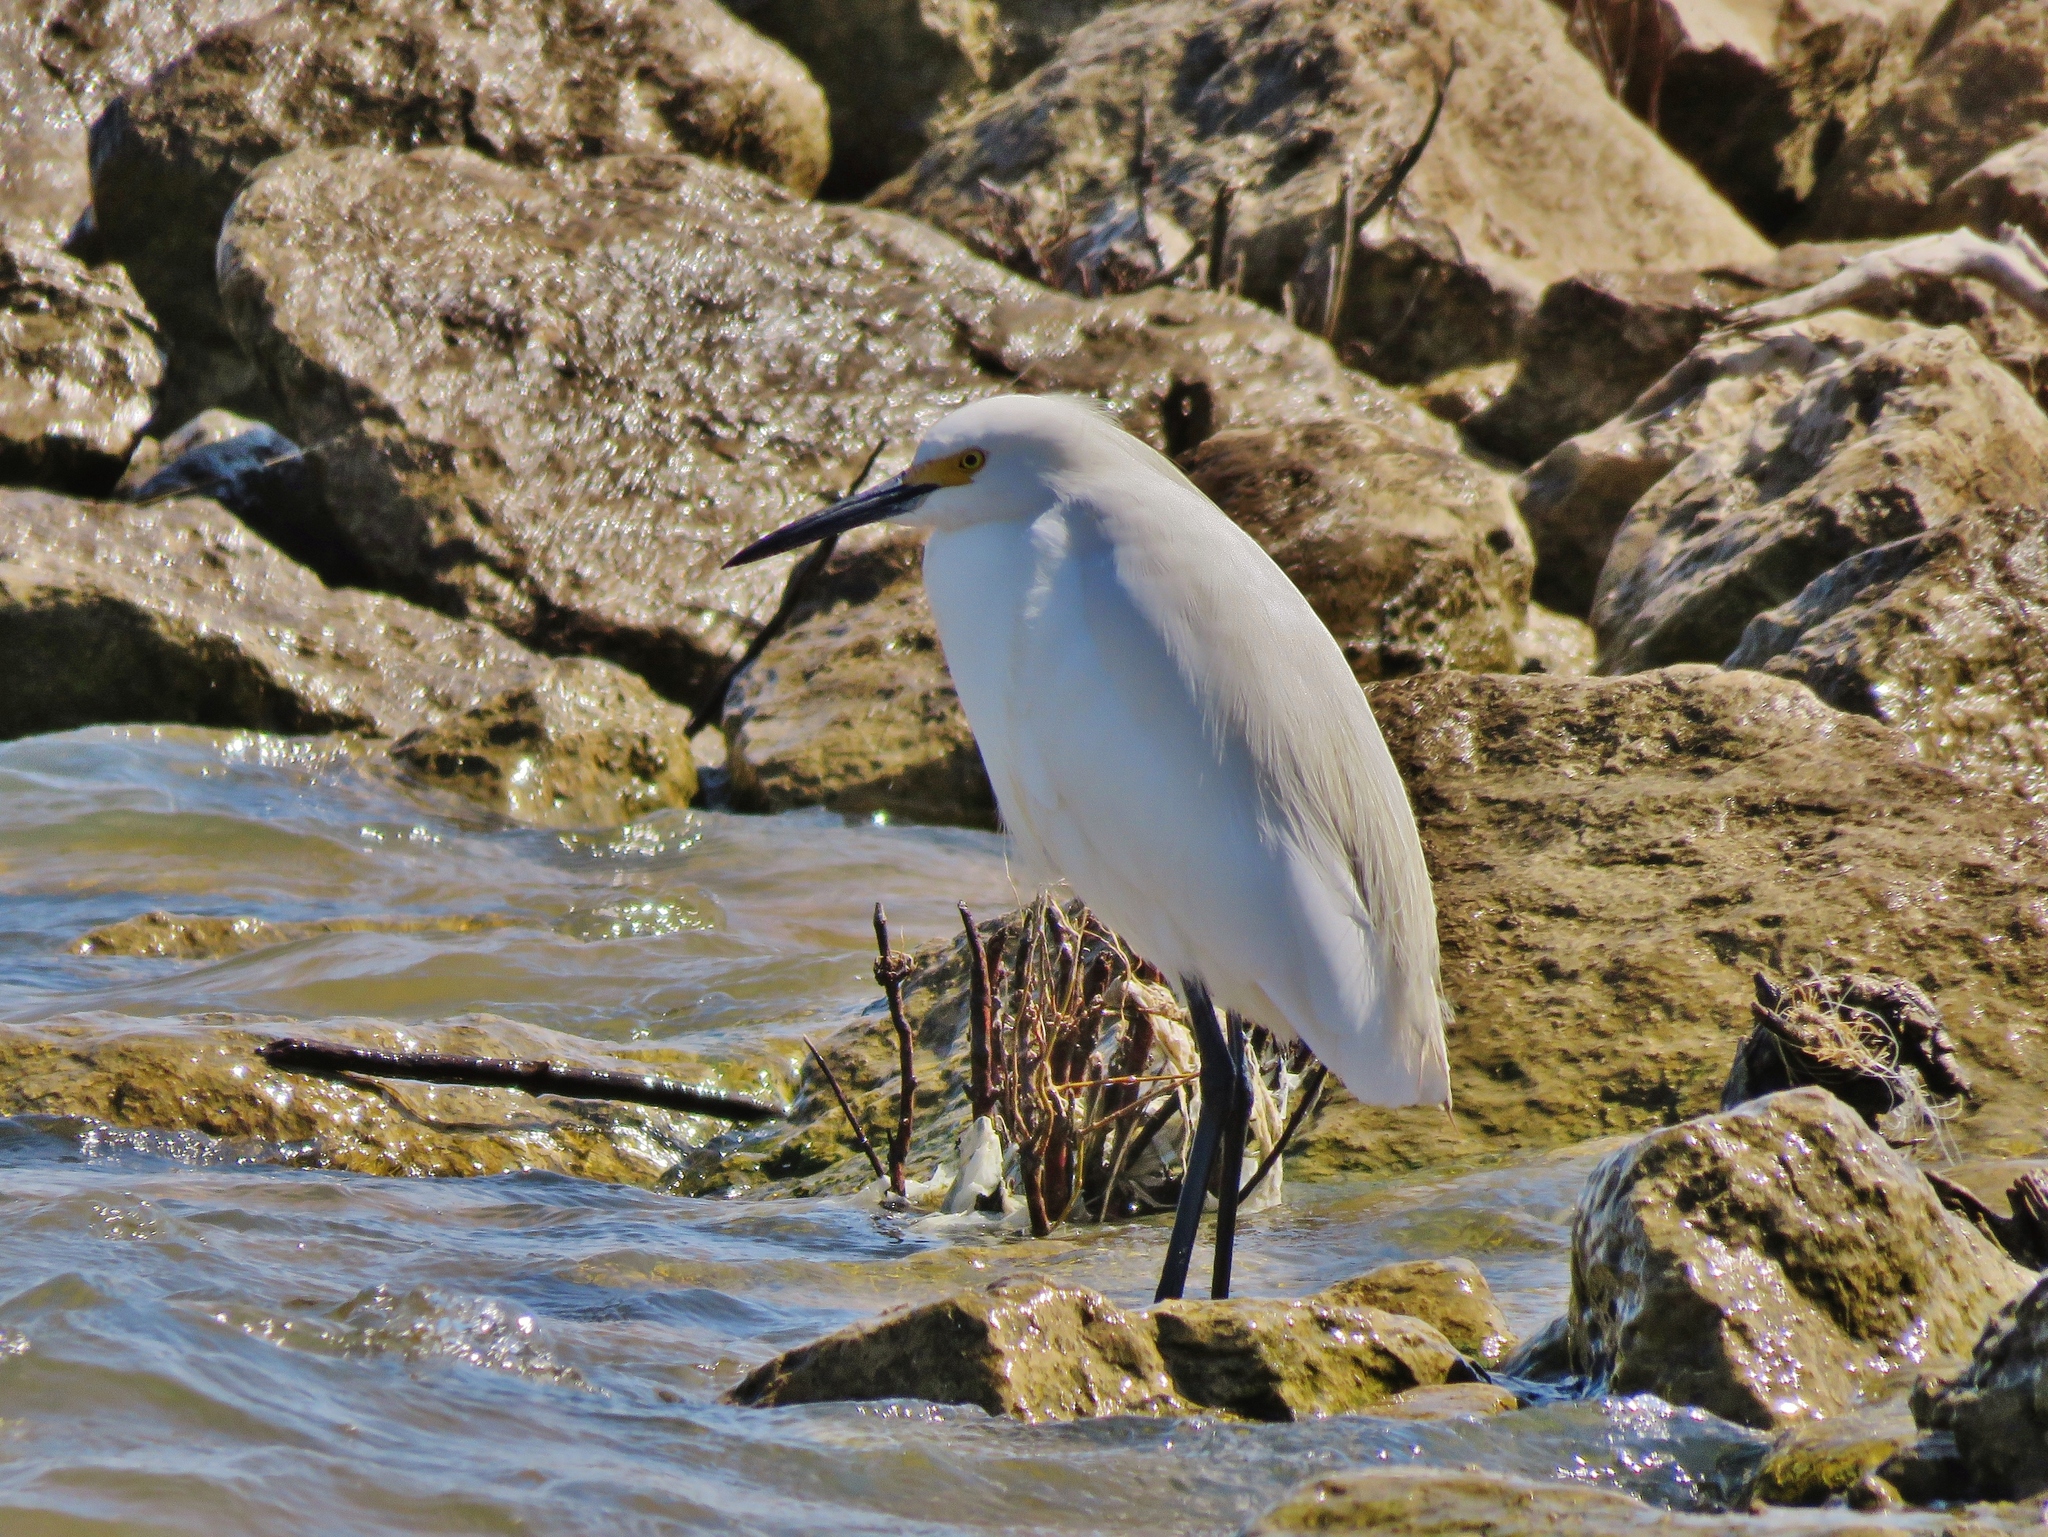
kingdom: Animalia
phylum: Chordata
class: Aves
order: Pelecaniformes
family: Ardeidae
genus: Egretta
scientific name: Egretta thula
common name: Snowy egret
